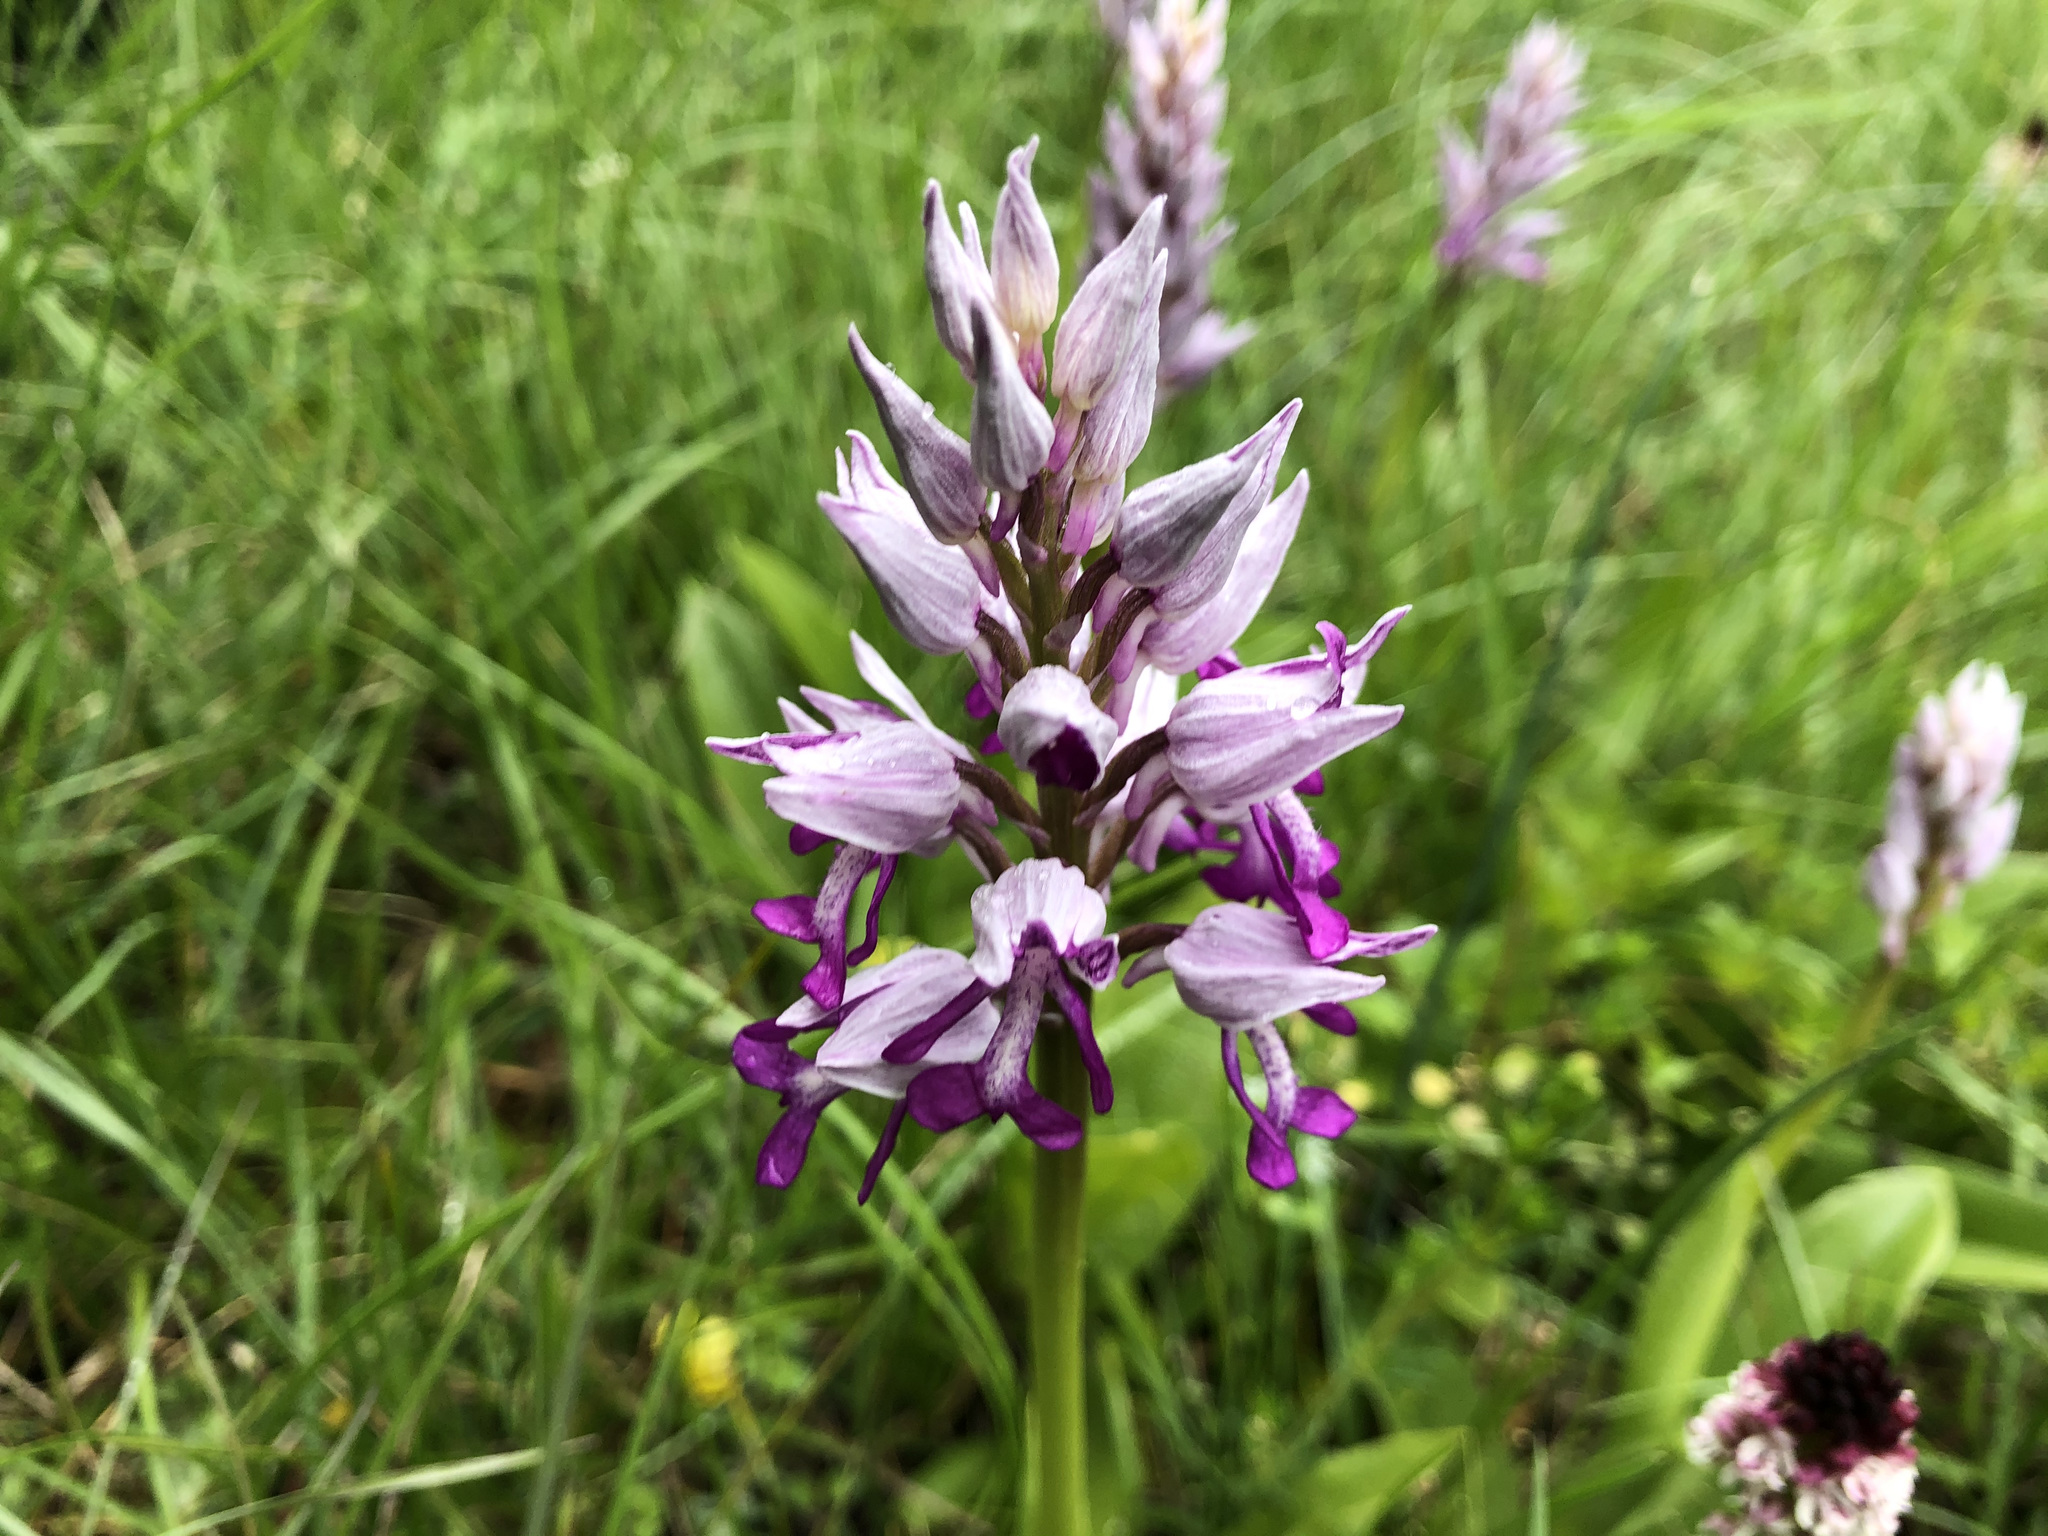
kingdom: Plantae
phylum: Tracheophyta
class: Liliopsida
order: Asparagales
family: Orchidaceae
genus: Orchis
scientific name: Orchis militaris
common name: Military orchid
